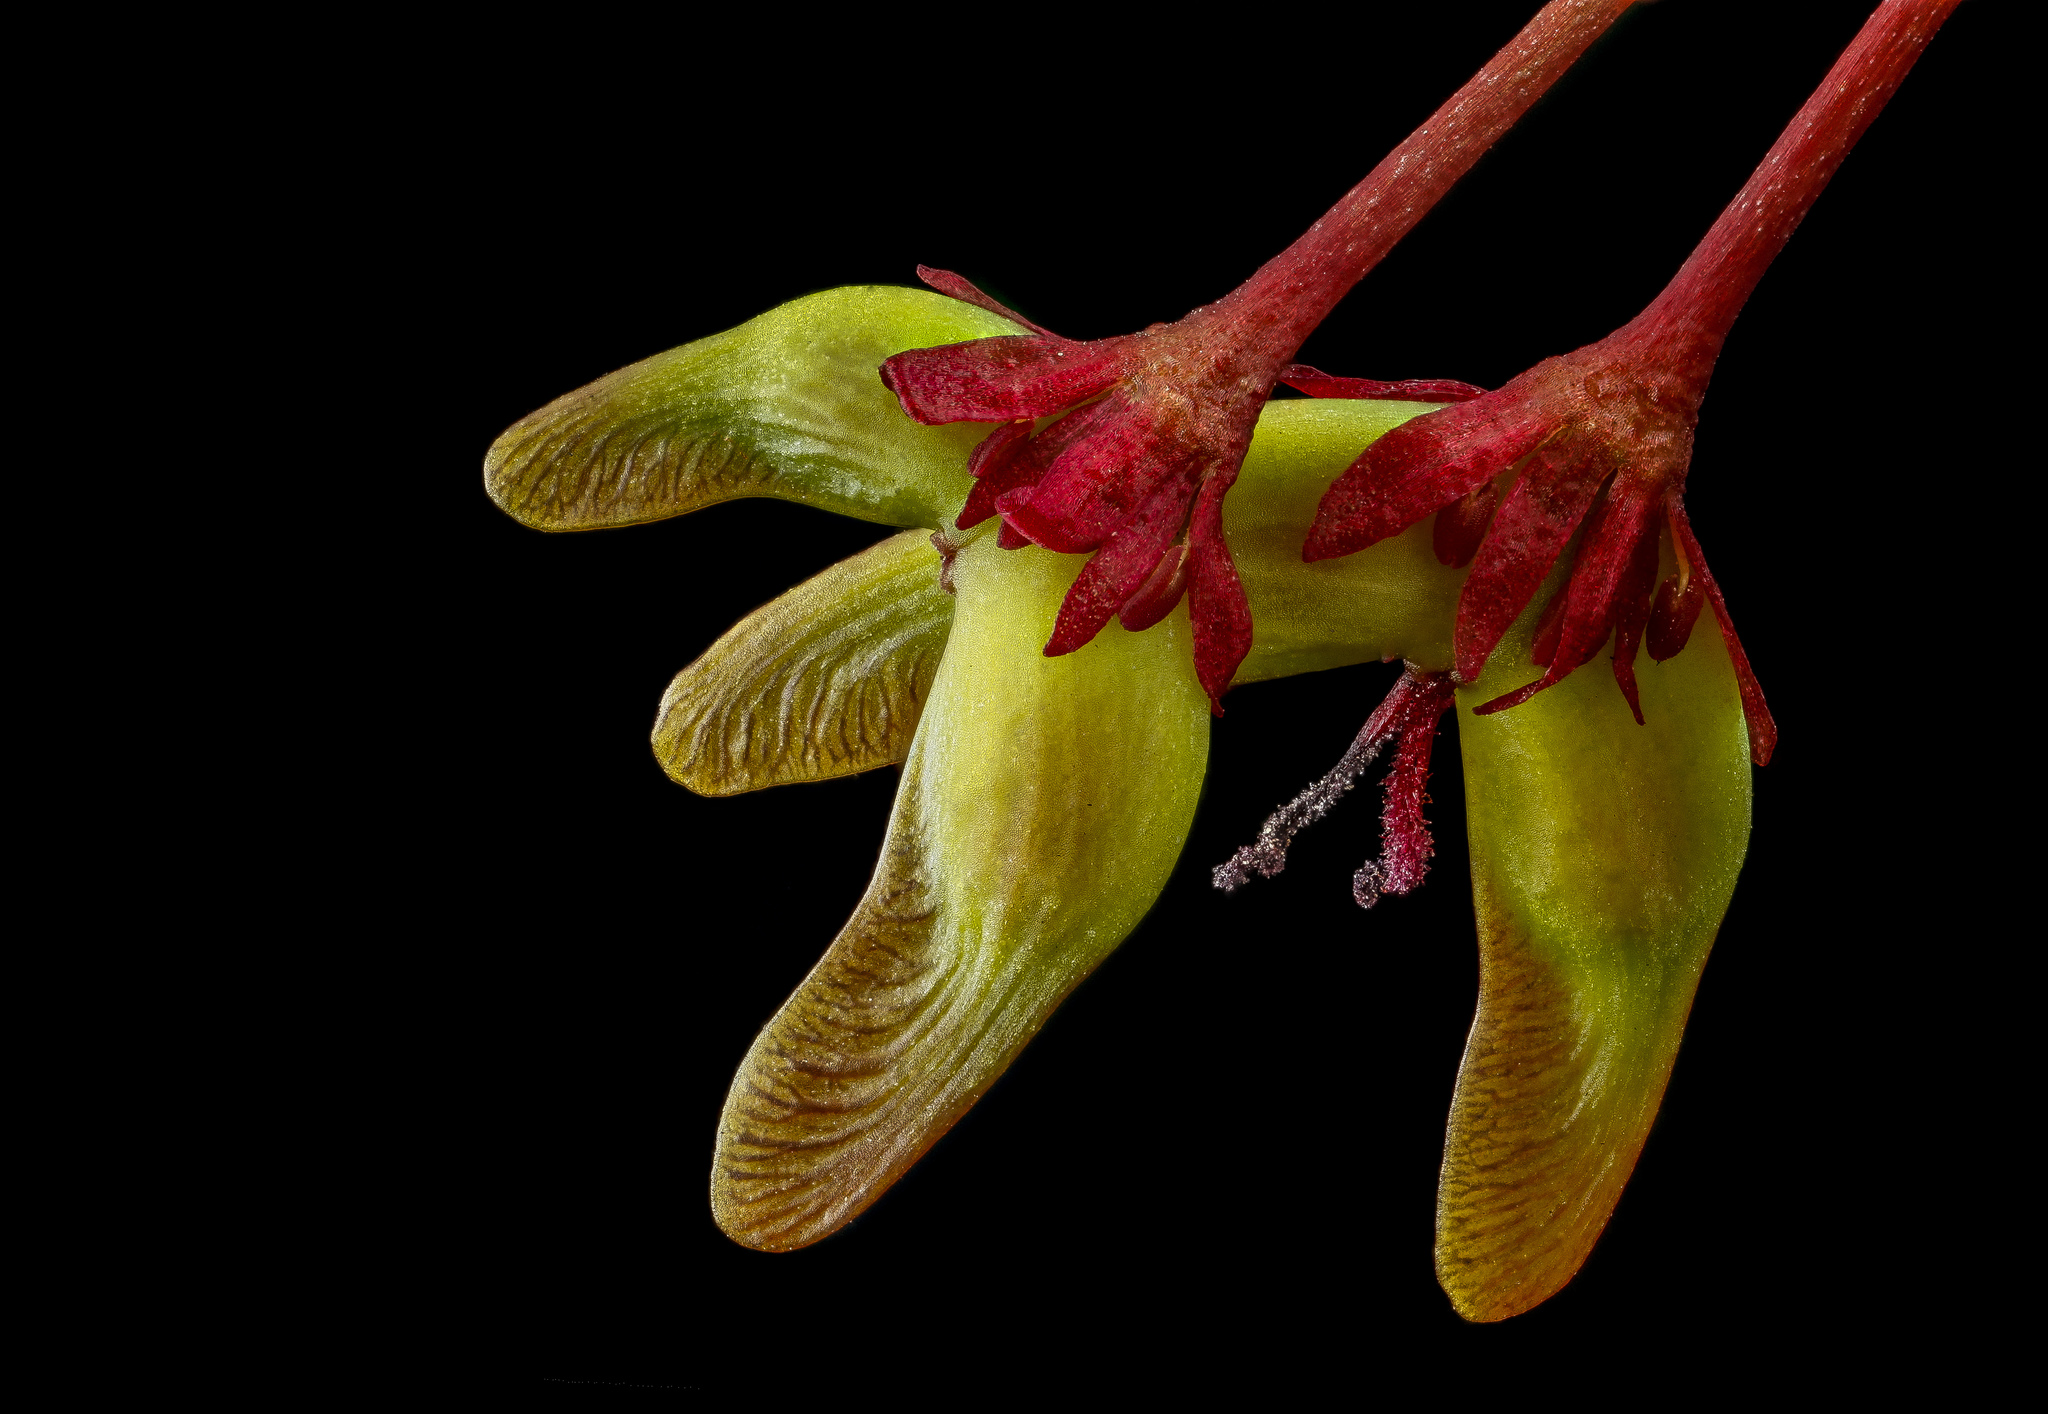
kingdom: Plantae
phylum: Tracheophyta
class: Magnoliopsida
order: Sapindales
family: Sapindaceae
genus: Acer
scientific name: Acer rubrum
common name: Red maple
